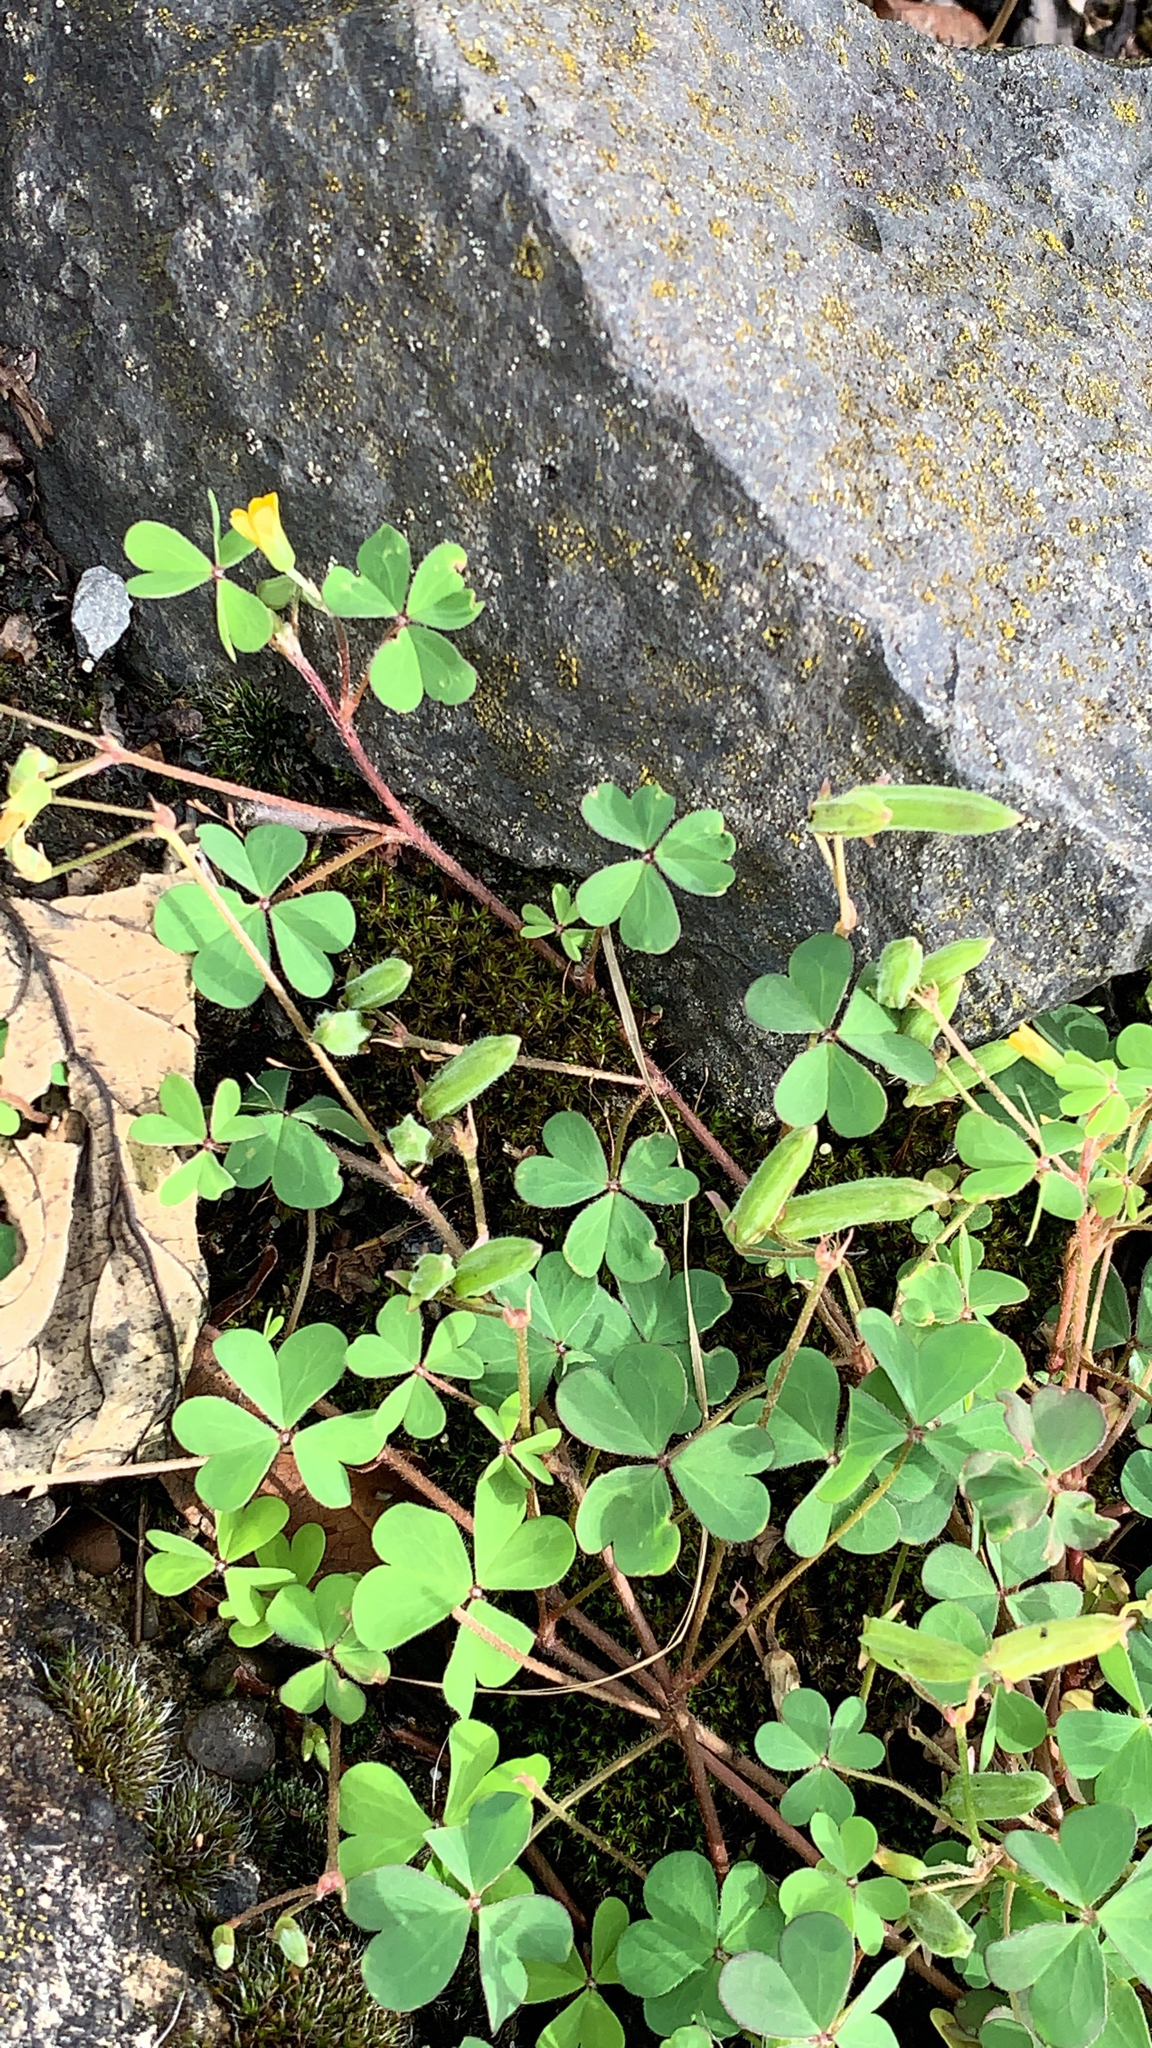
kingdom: Plantae
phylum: Tracheophyta
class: Magnoliopsida
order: Oxalidales
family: Oxalidaceae
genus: Oxalis
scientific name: Oxalis corniculata
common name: Procumbent yellow-sorrel
